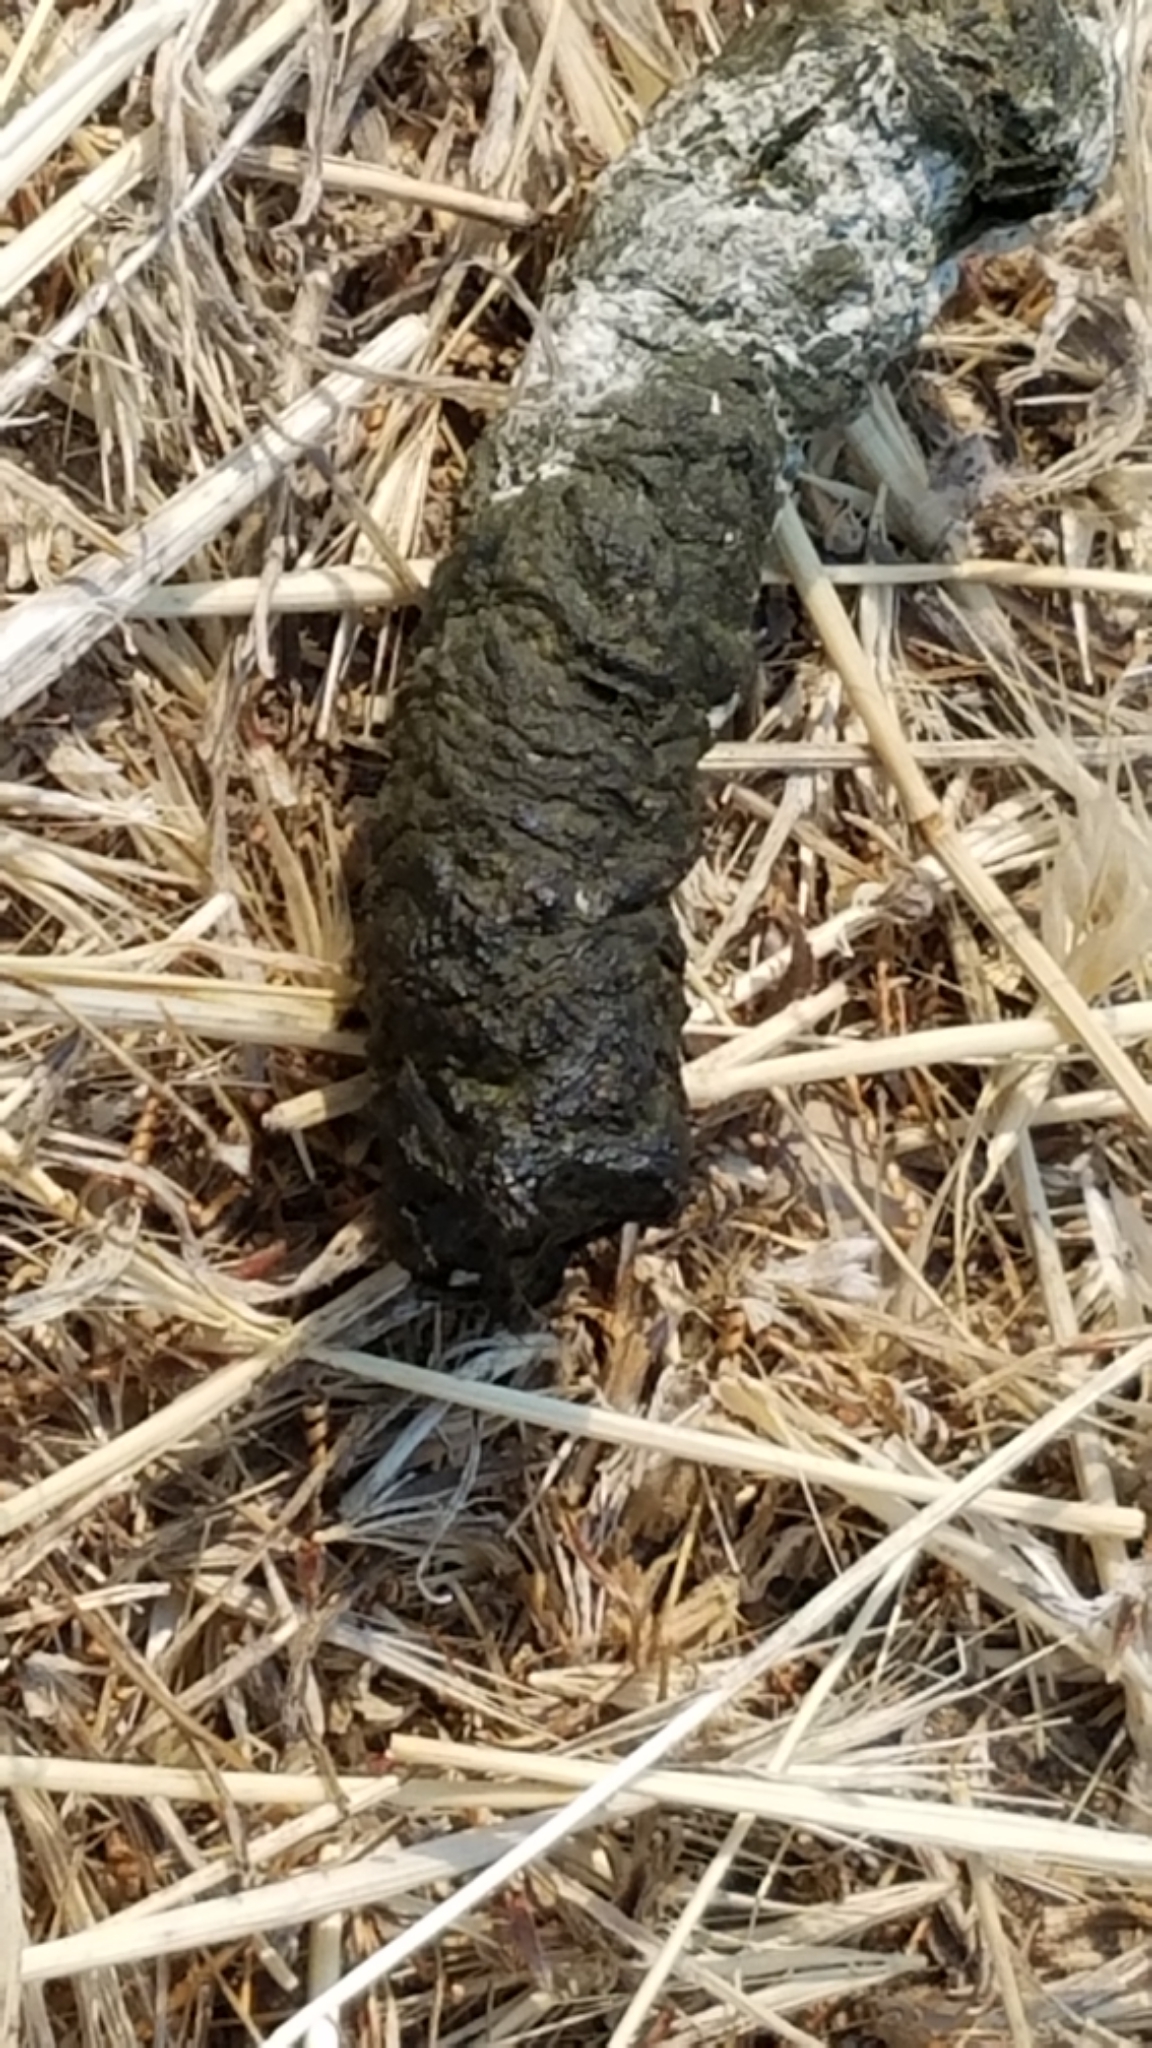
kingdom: Animalia
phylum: Chordata
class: Aves
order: Anseriformes
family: Anatidae
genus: Branta
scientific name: Branta canadensis
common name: Canada goose
